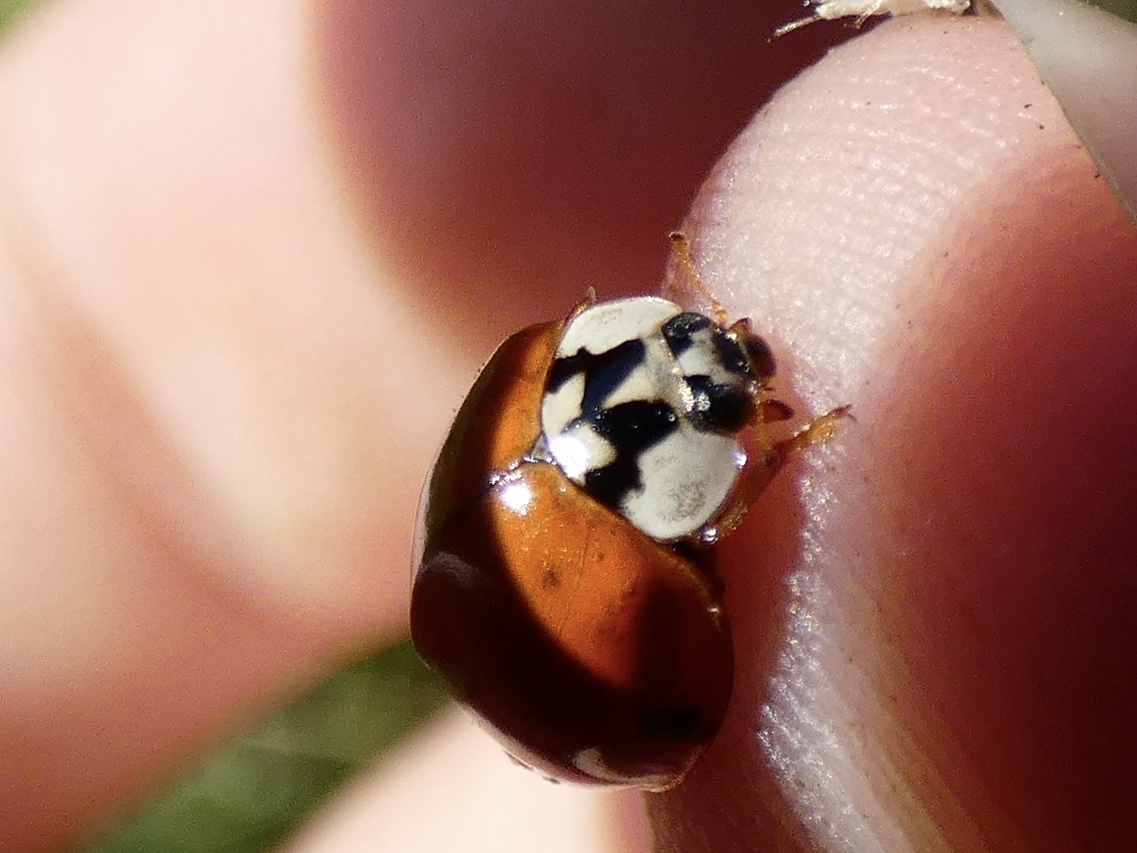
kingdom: Animalia
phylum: Arthropoda
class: Insecta
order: Coleoptera
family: Coccinellidae
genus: Harmonia
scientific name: Harmonia axyridis
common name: Harlequin ladybird
